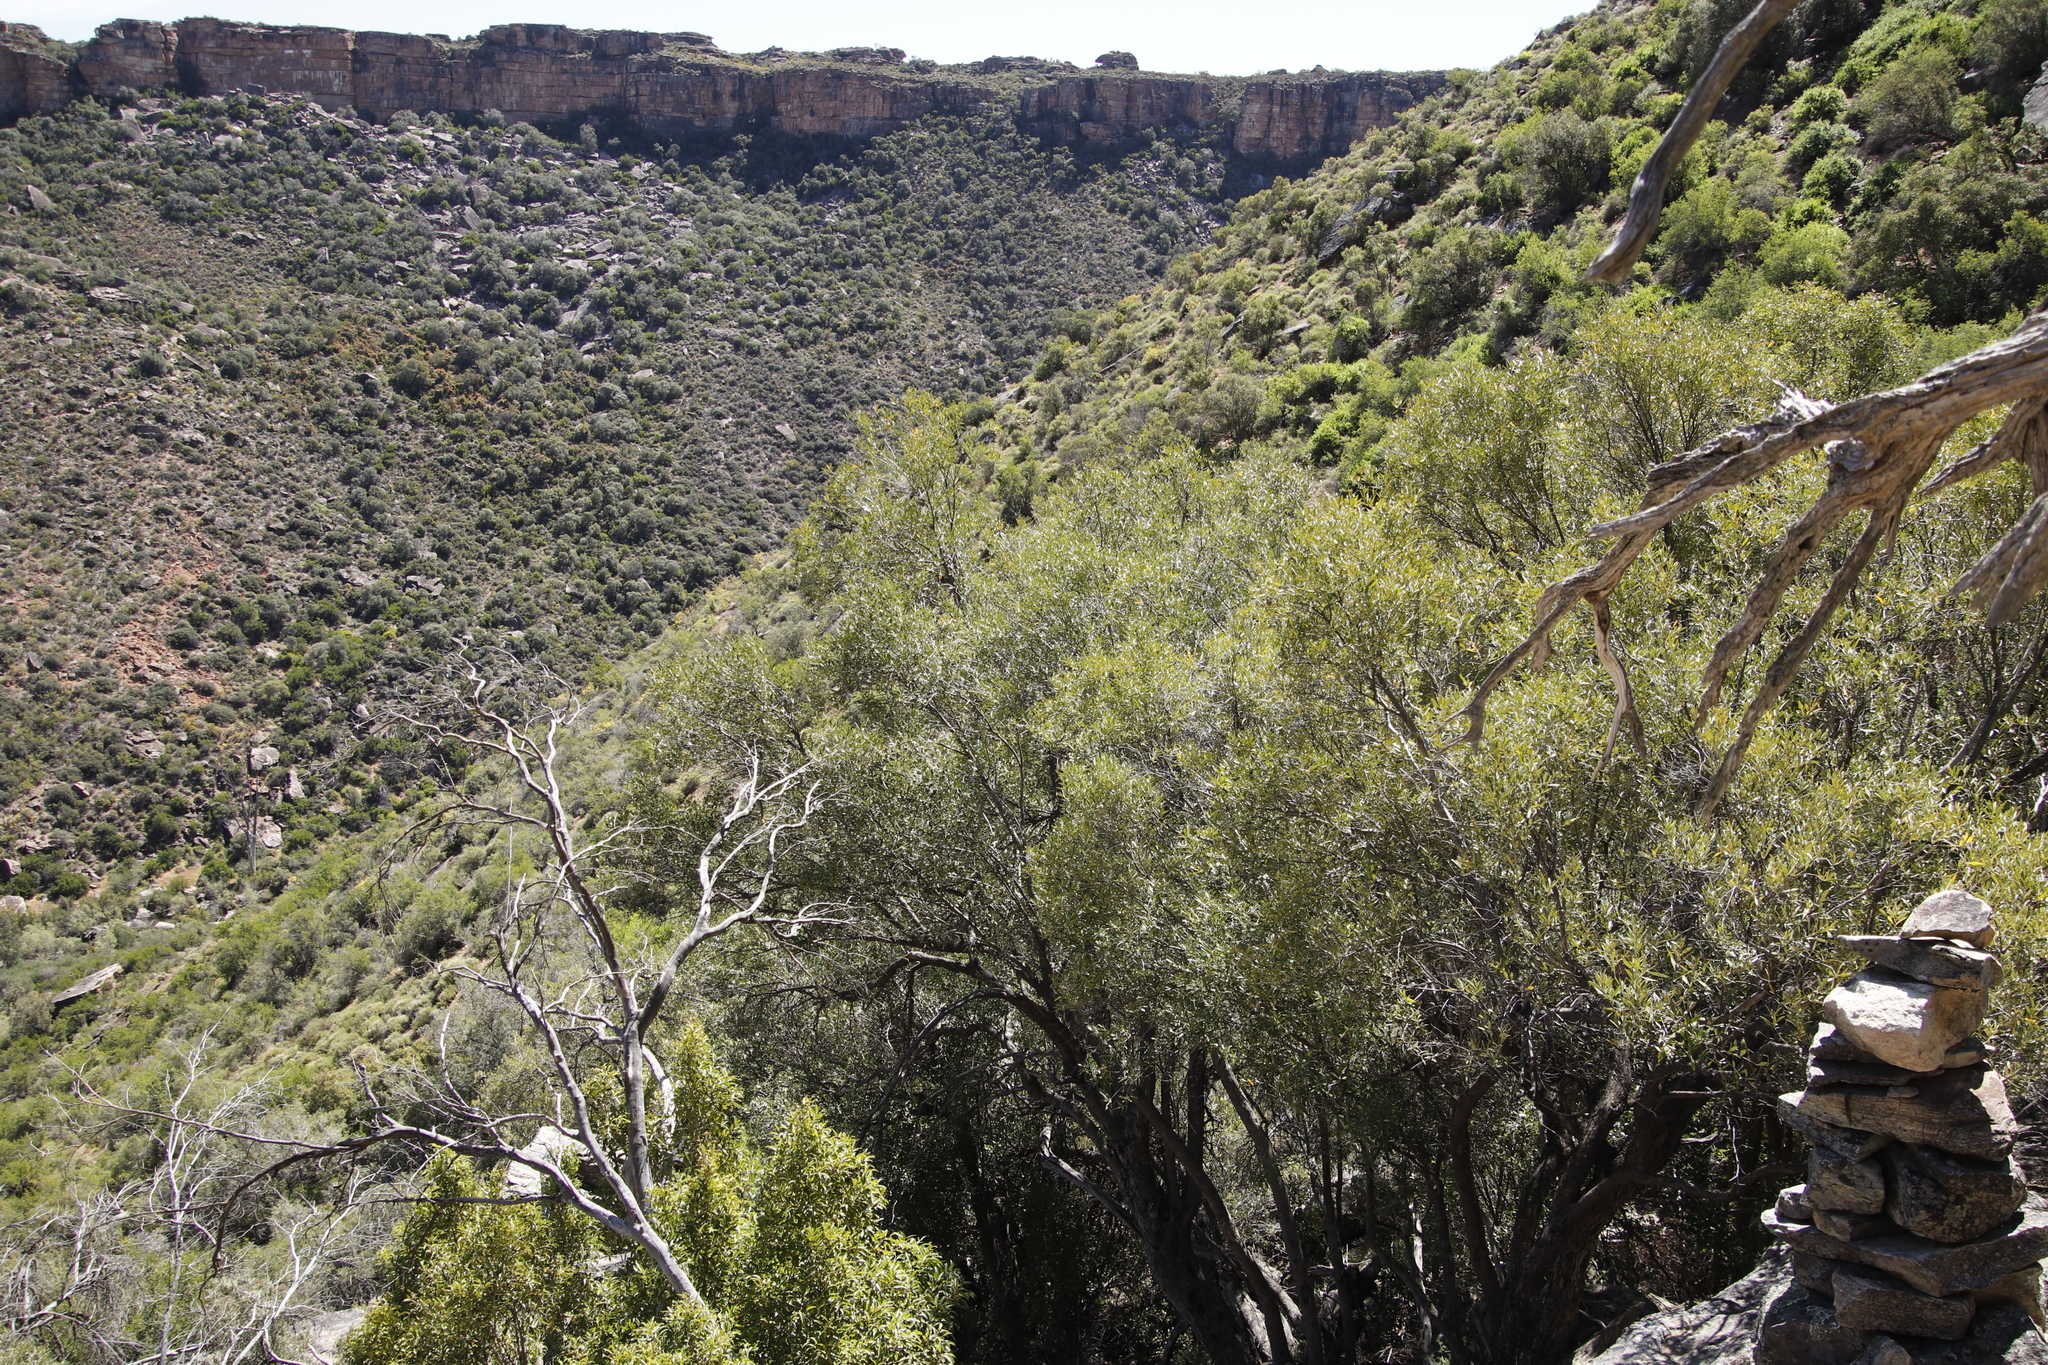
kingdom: Plantae
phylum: Tracheophyta
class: Magnoliopsida
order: Lamiales
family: Oleaceae
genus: Olea
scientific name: Olea europaea
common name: Olive
